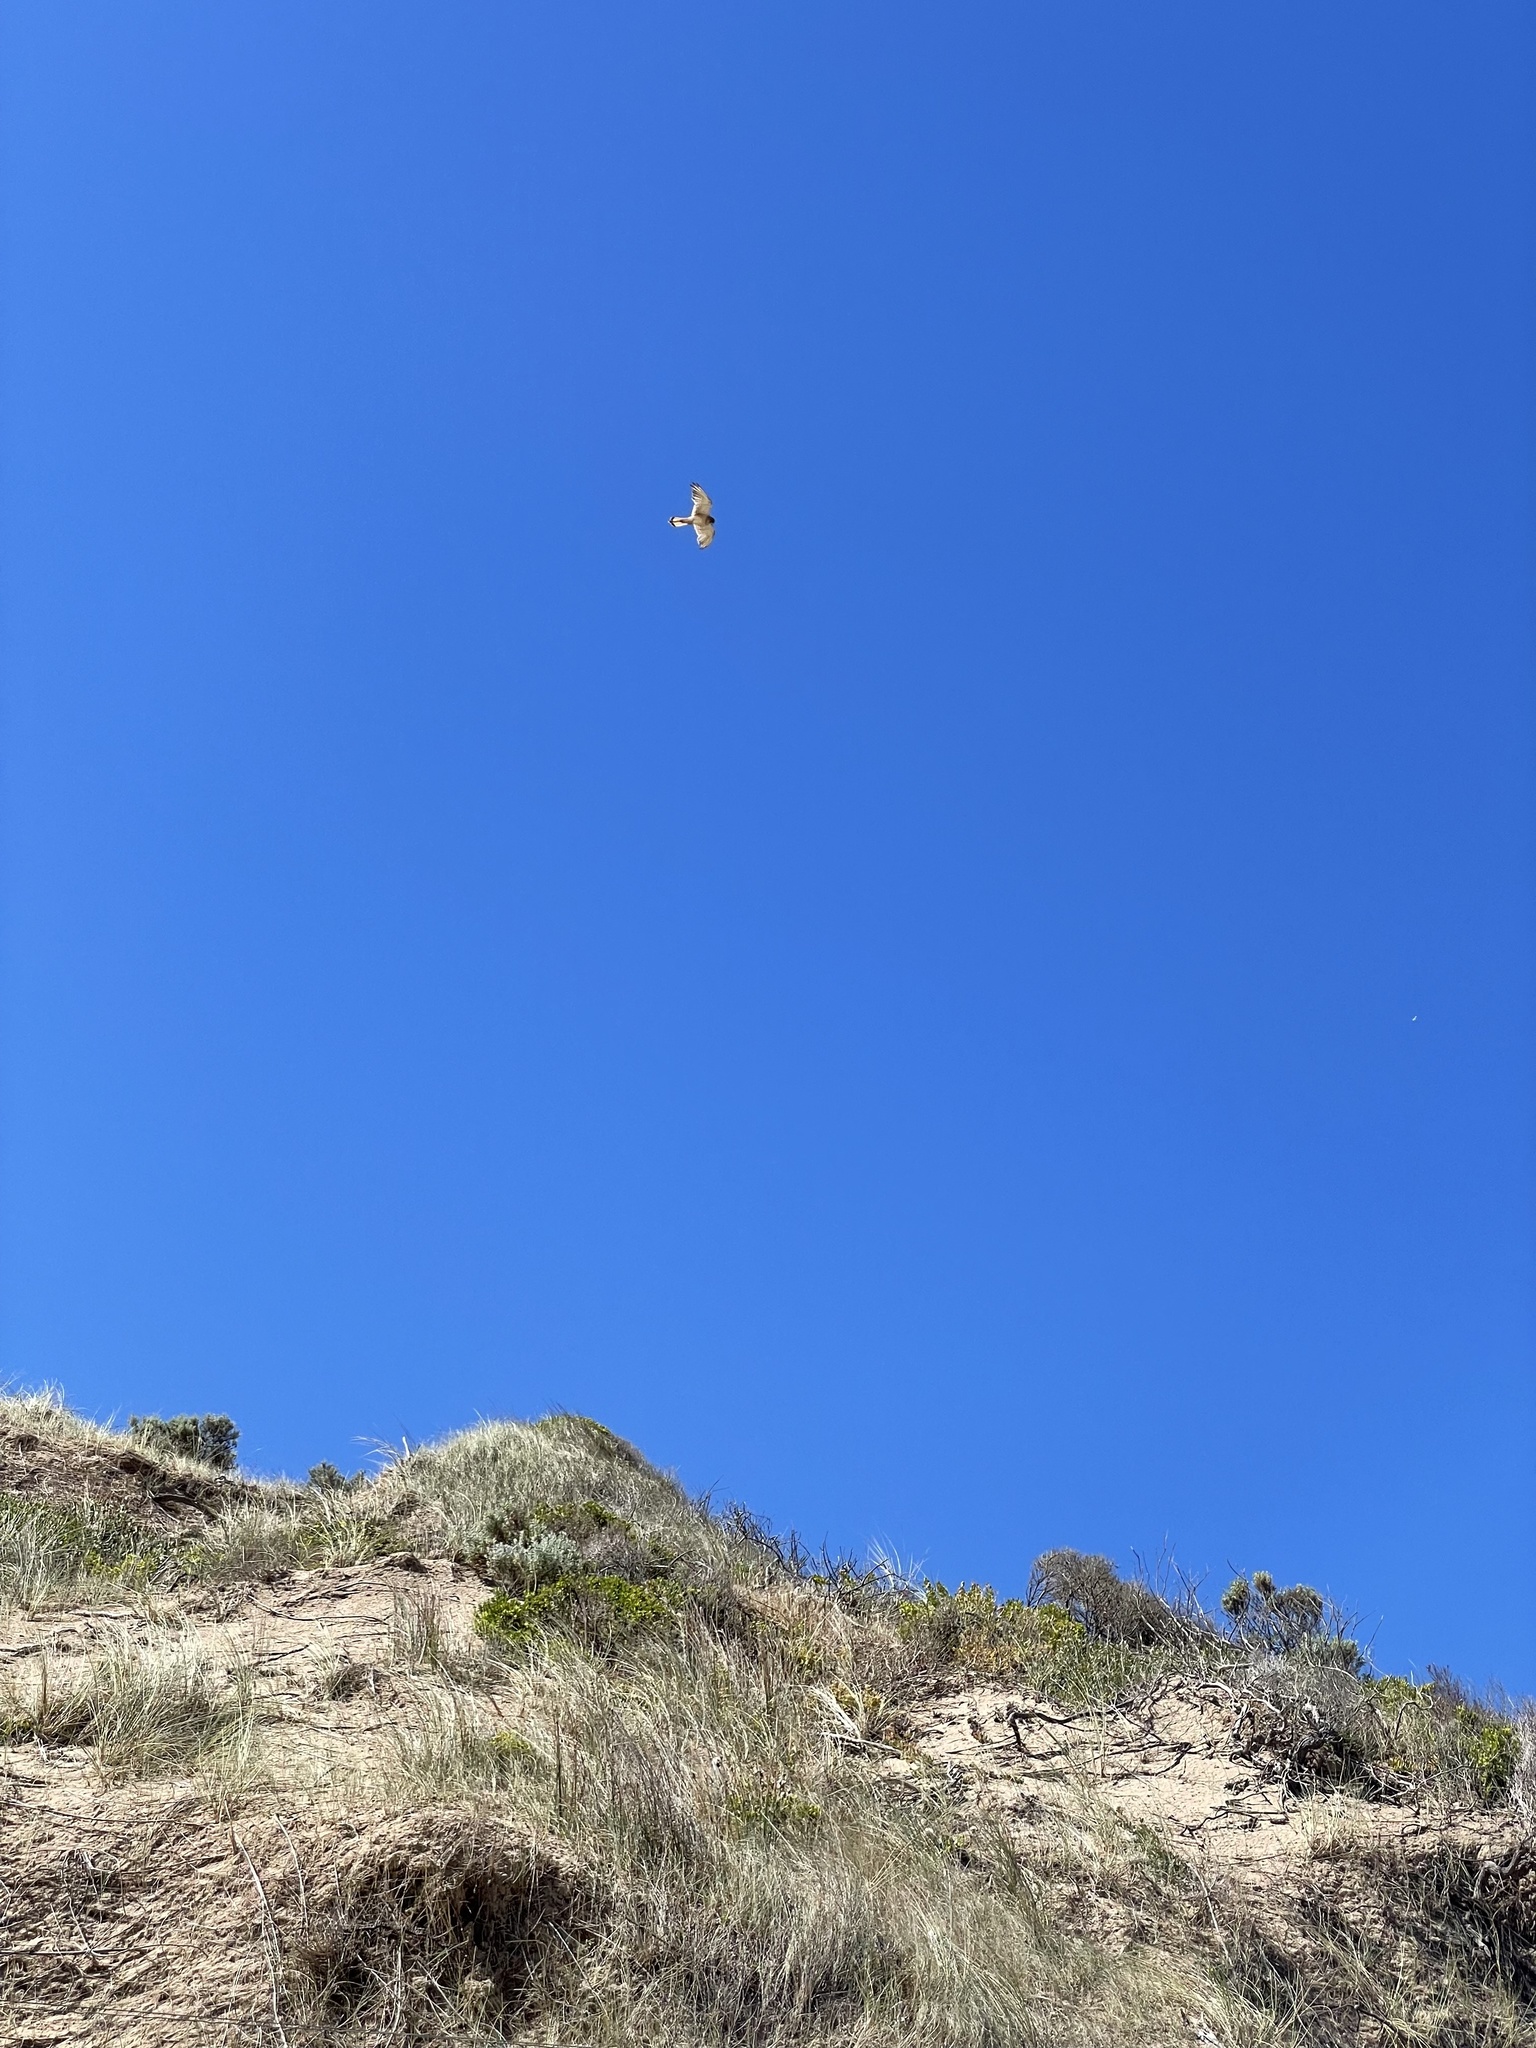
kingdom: Animalia
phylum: Chordata
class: Aves
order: Falconiformes
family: Falconidae
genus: Falco
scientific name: Falco cenchroides
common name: Nankeen kestrel
